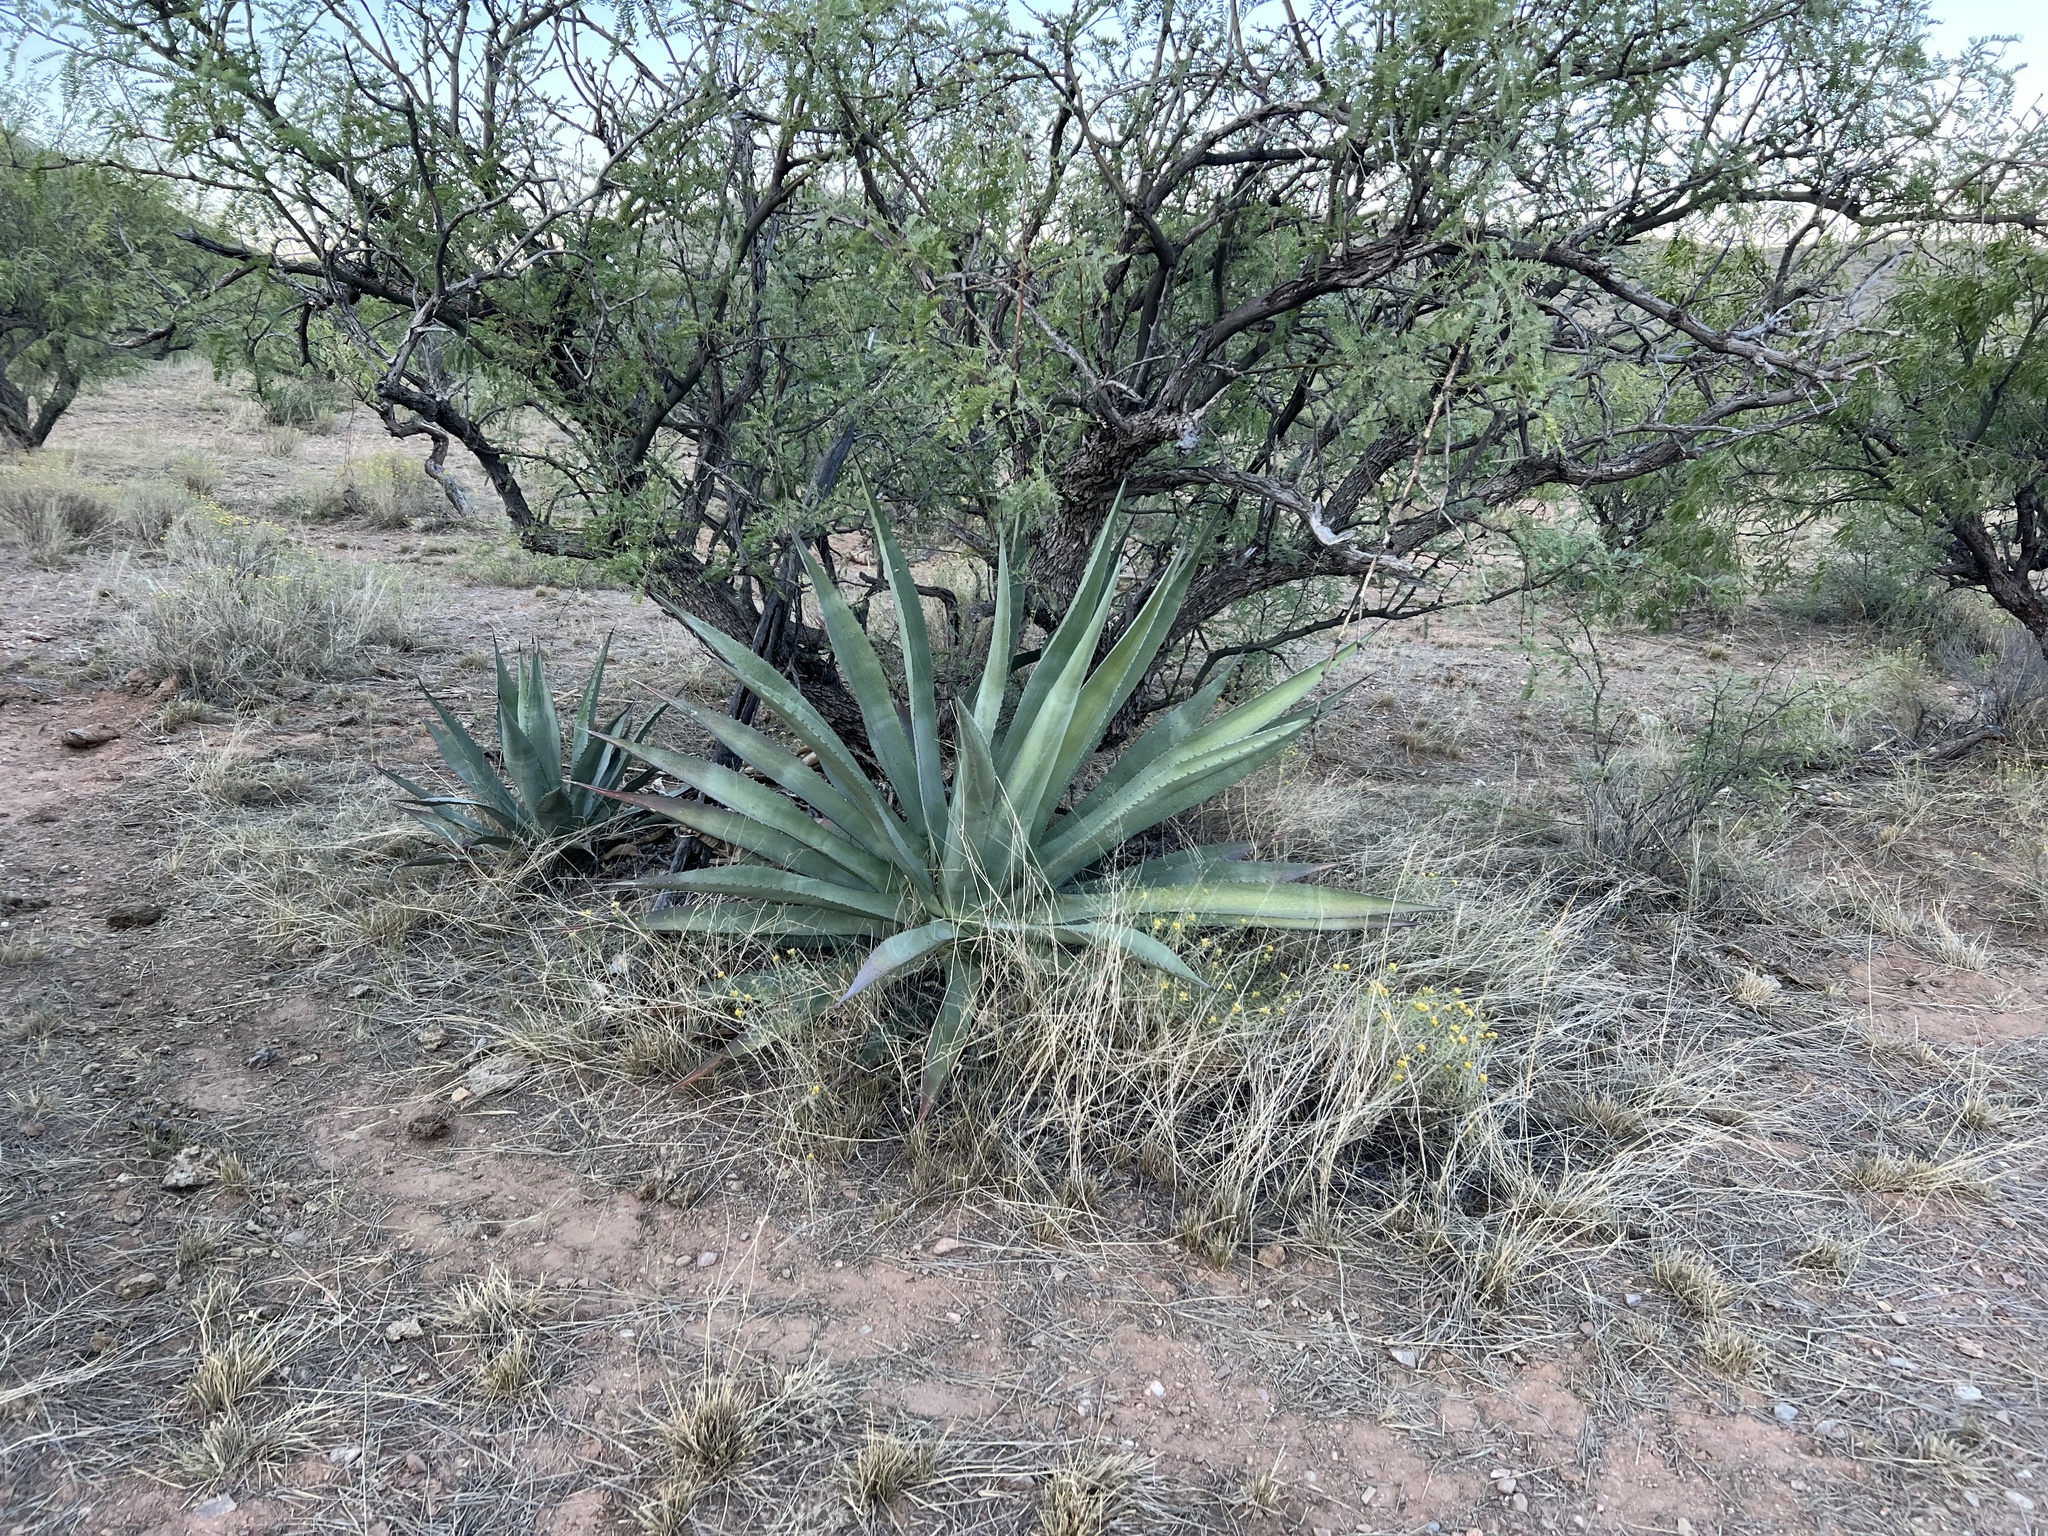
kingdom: Plantae
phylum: Tracheophyta
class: Liliopsida
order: Asparagales
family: Asparagaceae
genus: Agave
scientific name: Agave palmeri
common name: Palmer agave
